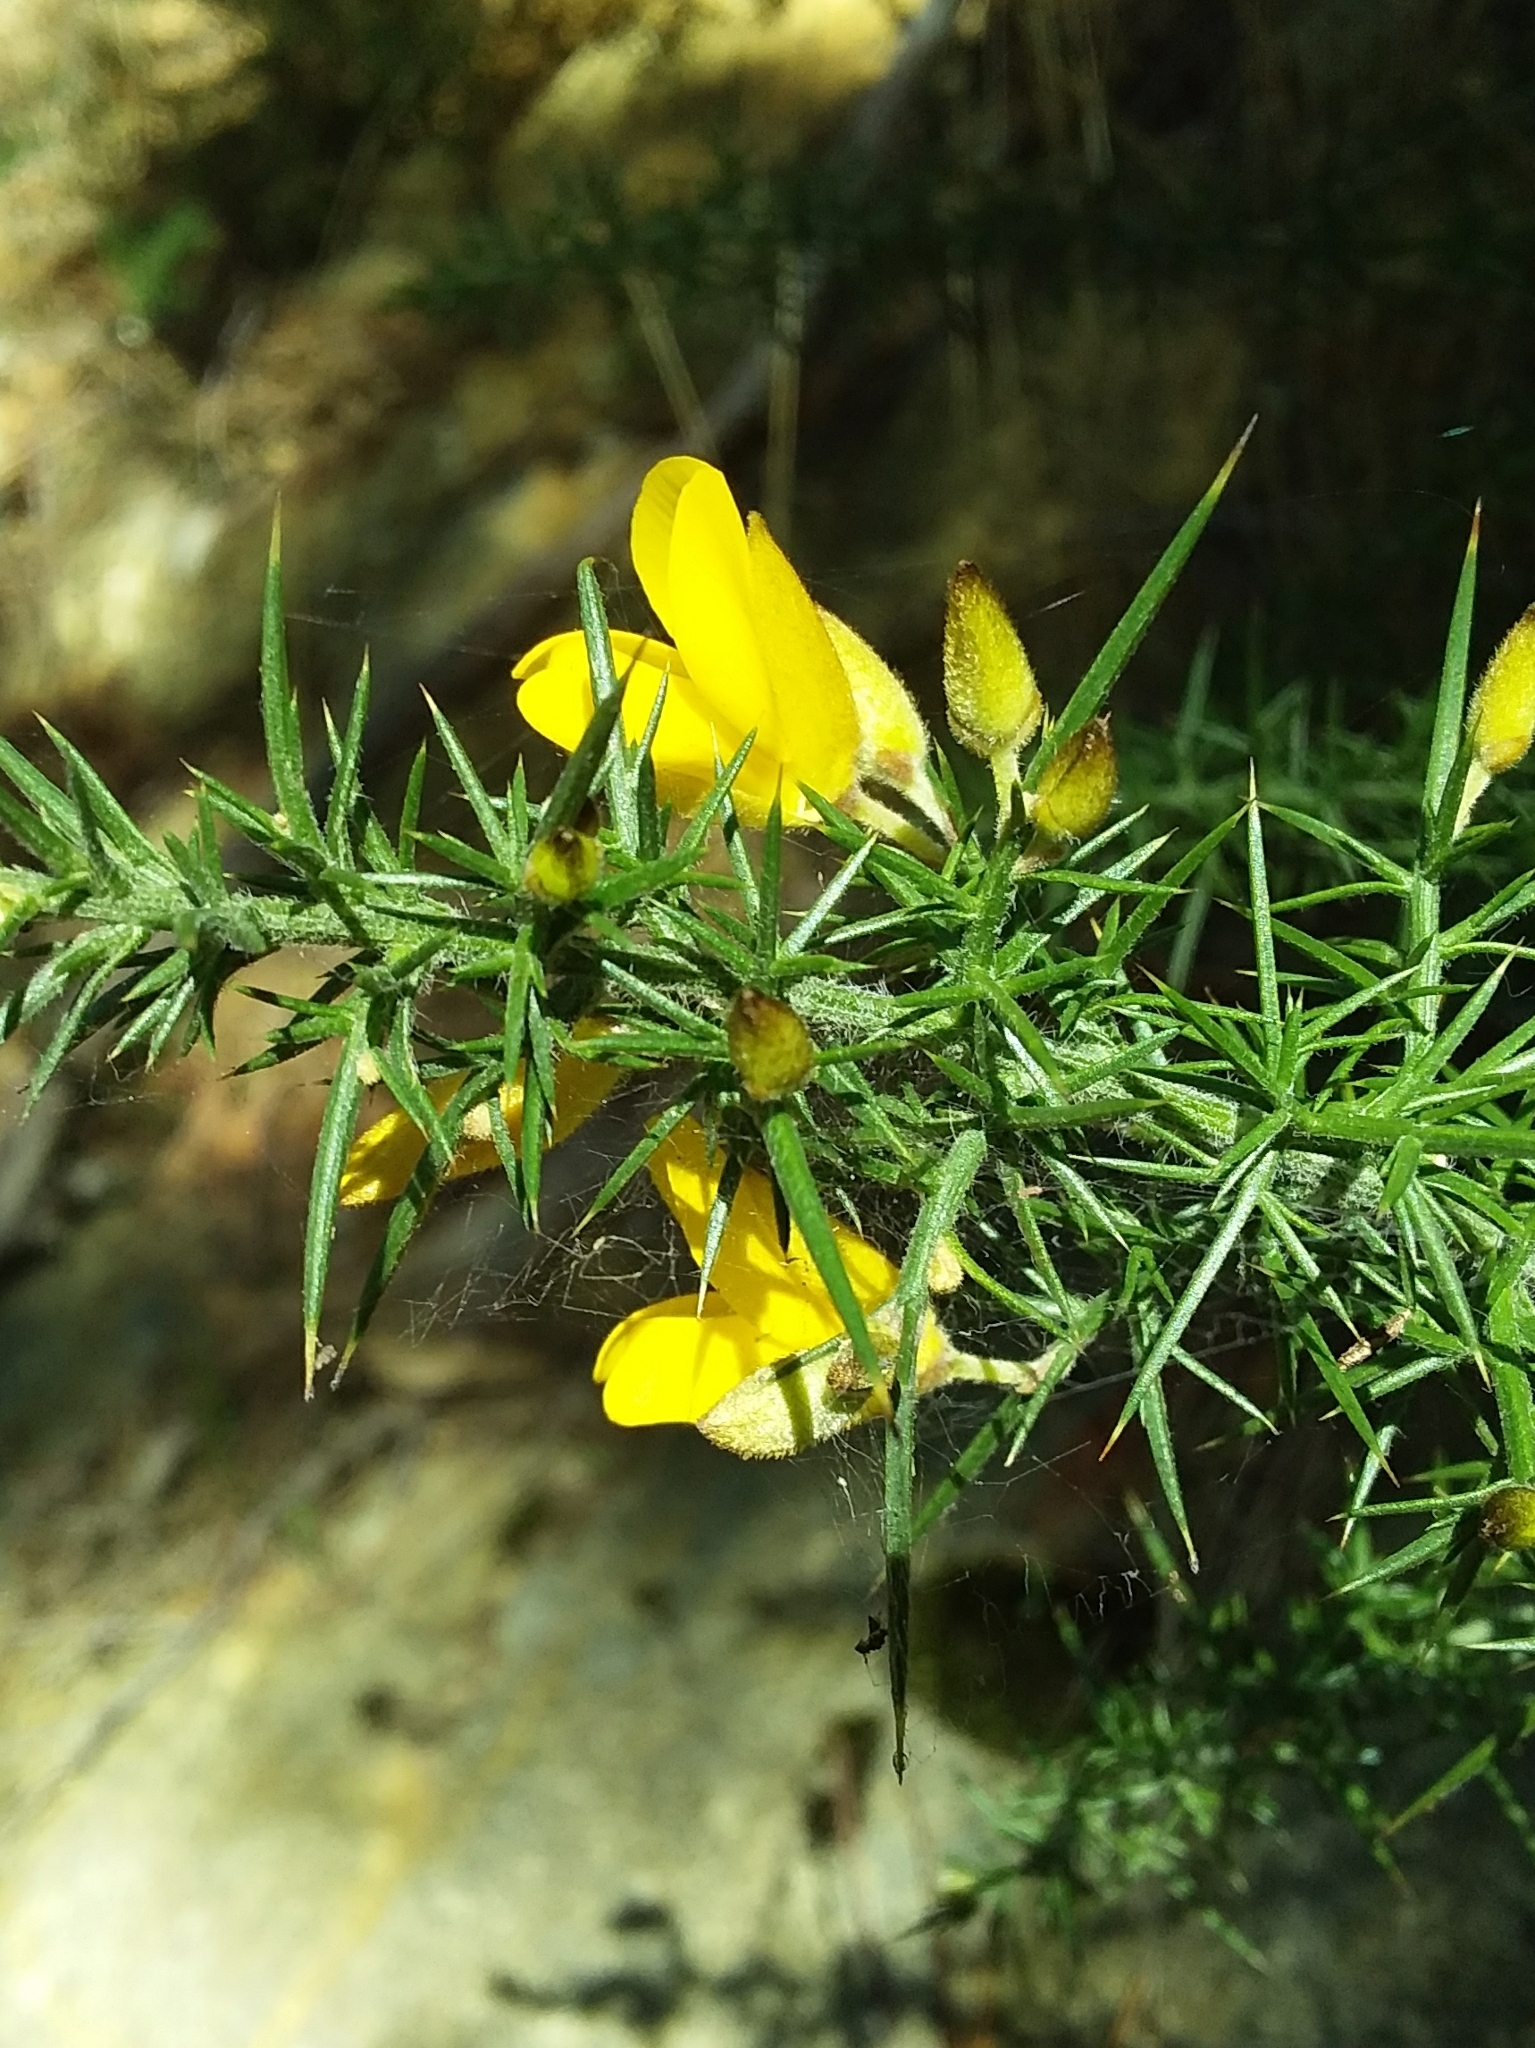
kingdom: Plantae
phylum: Tracheophyta
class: Magnoliopsida
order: Fabales
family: Fabaceae
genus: Ulex
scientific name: Ulex europaeus
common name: Common gorse
